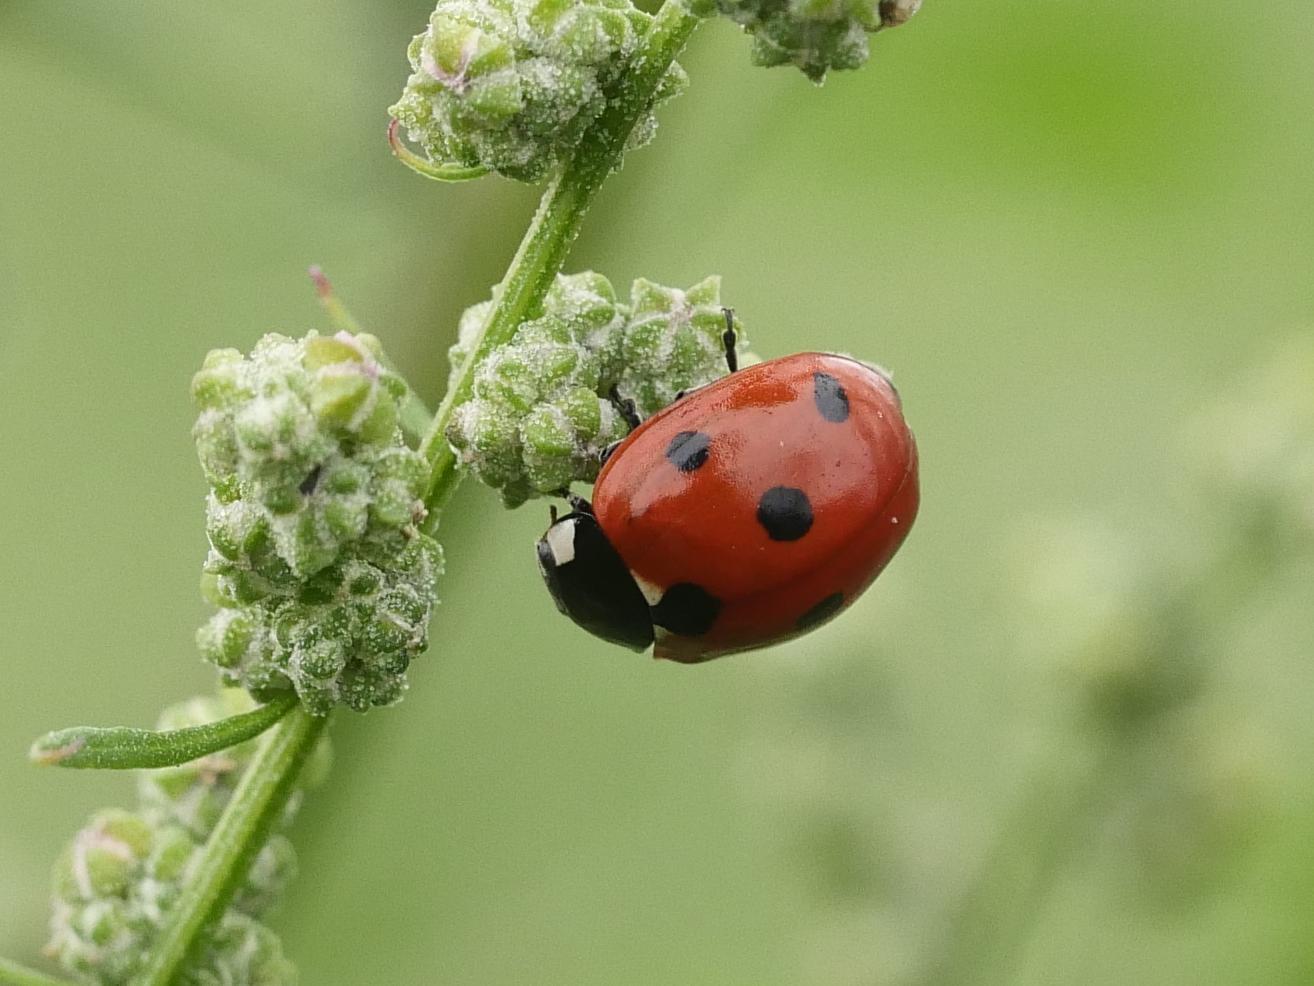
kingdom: Animalia
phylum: Arthropoda
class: Insecta
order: Coleoptera
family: Coccinellidae
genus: Coccinella
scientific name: Coccinella septempunctata
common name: Sevenspotted lady beetle
